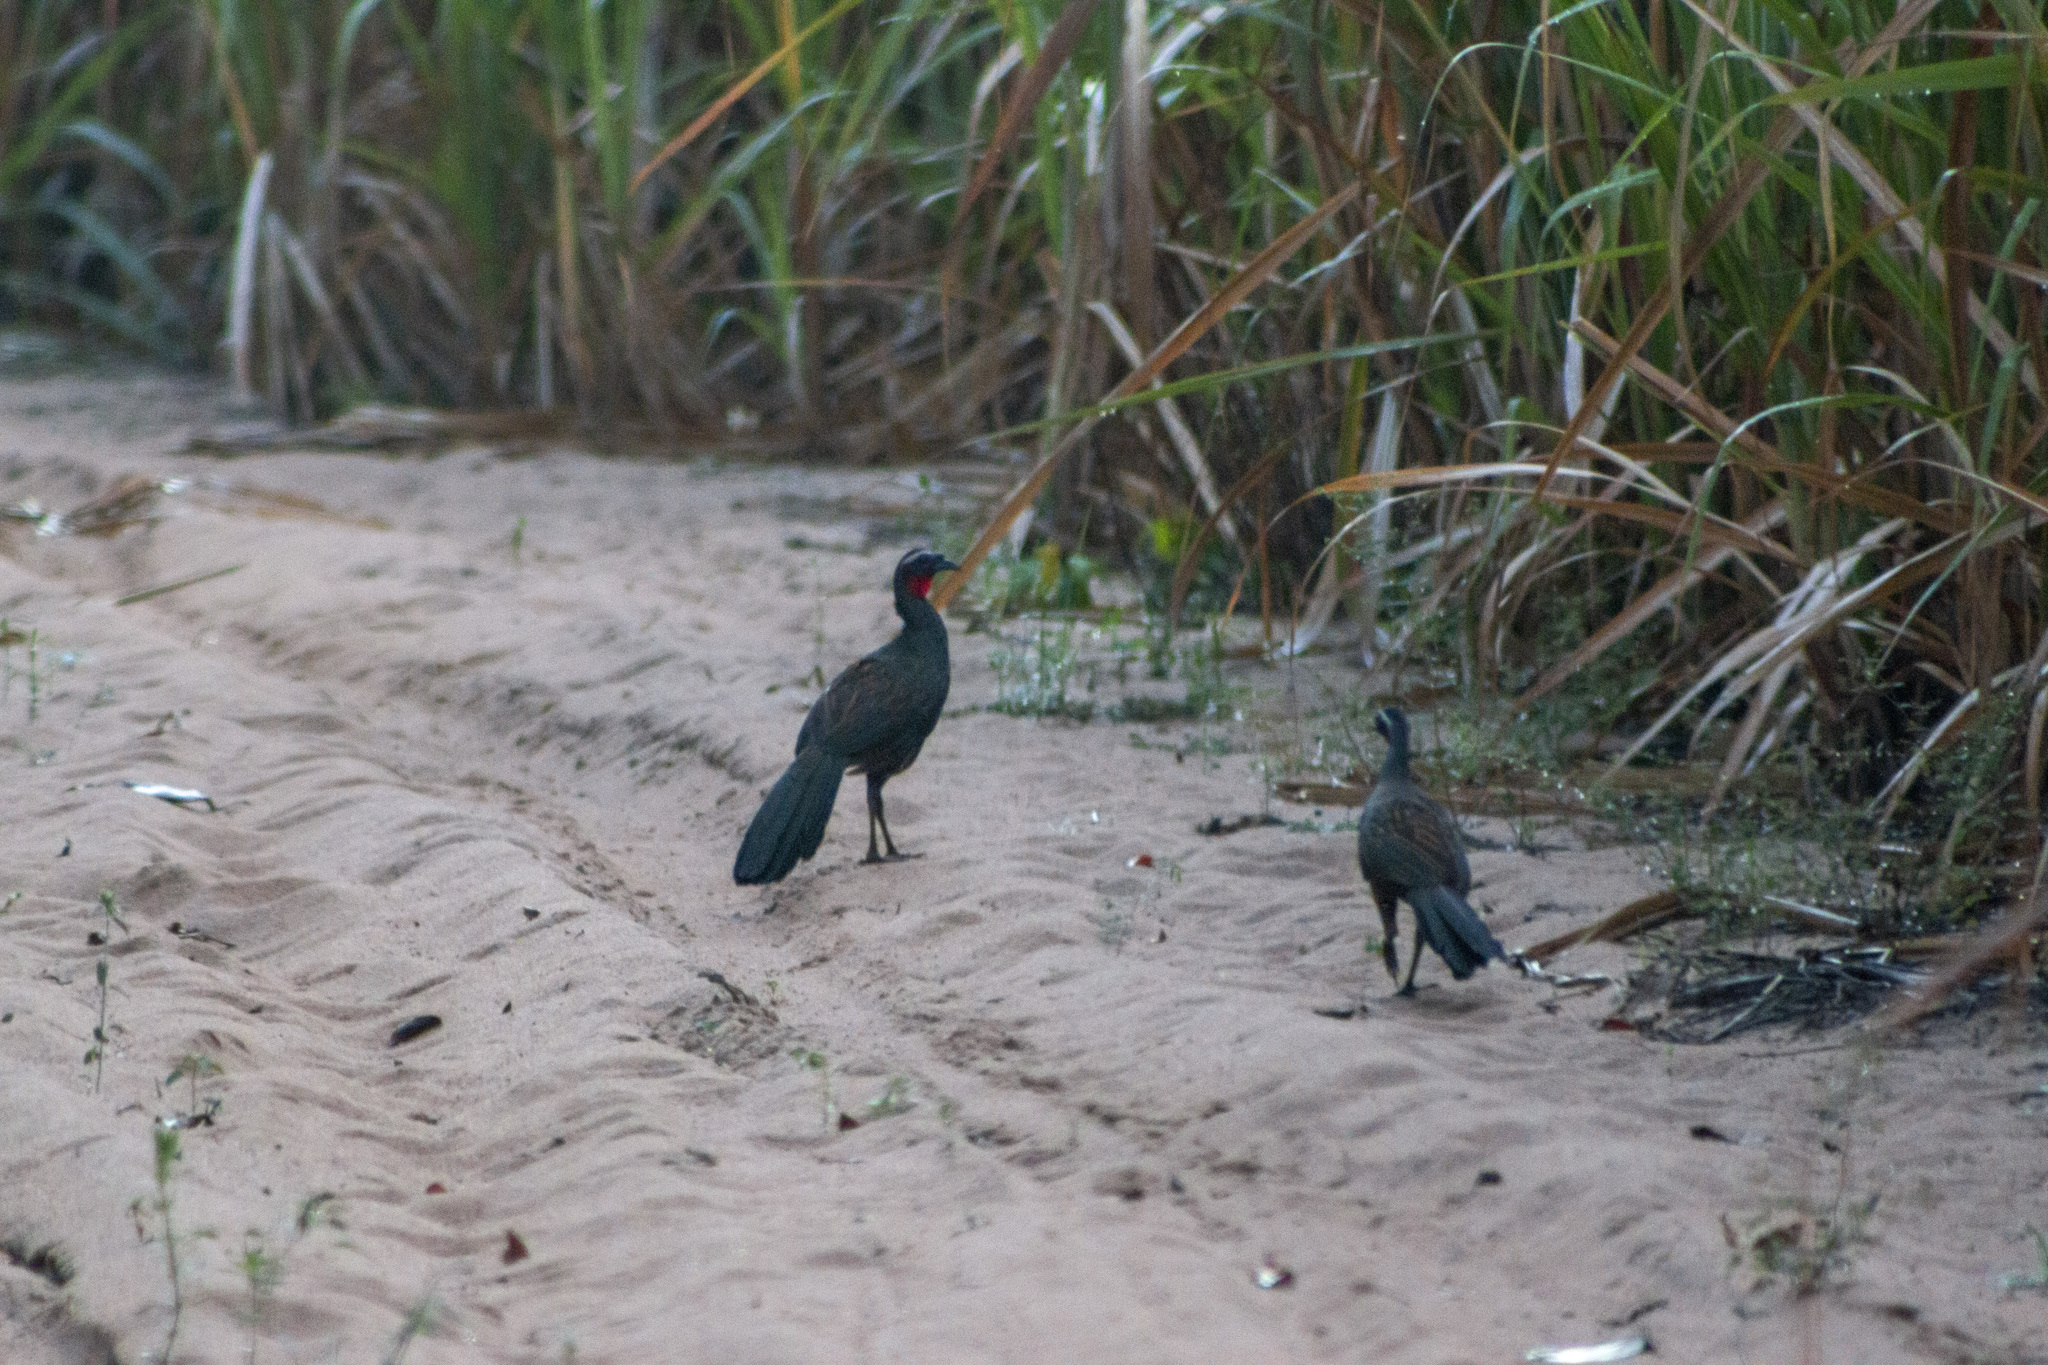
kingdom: Animalia
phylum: Chordata
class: Aves
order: Galliformes
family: Cracidae
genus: Penelope
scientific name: Penelope superciliaris
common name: Rusty-margined guan
